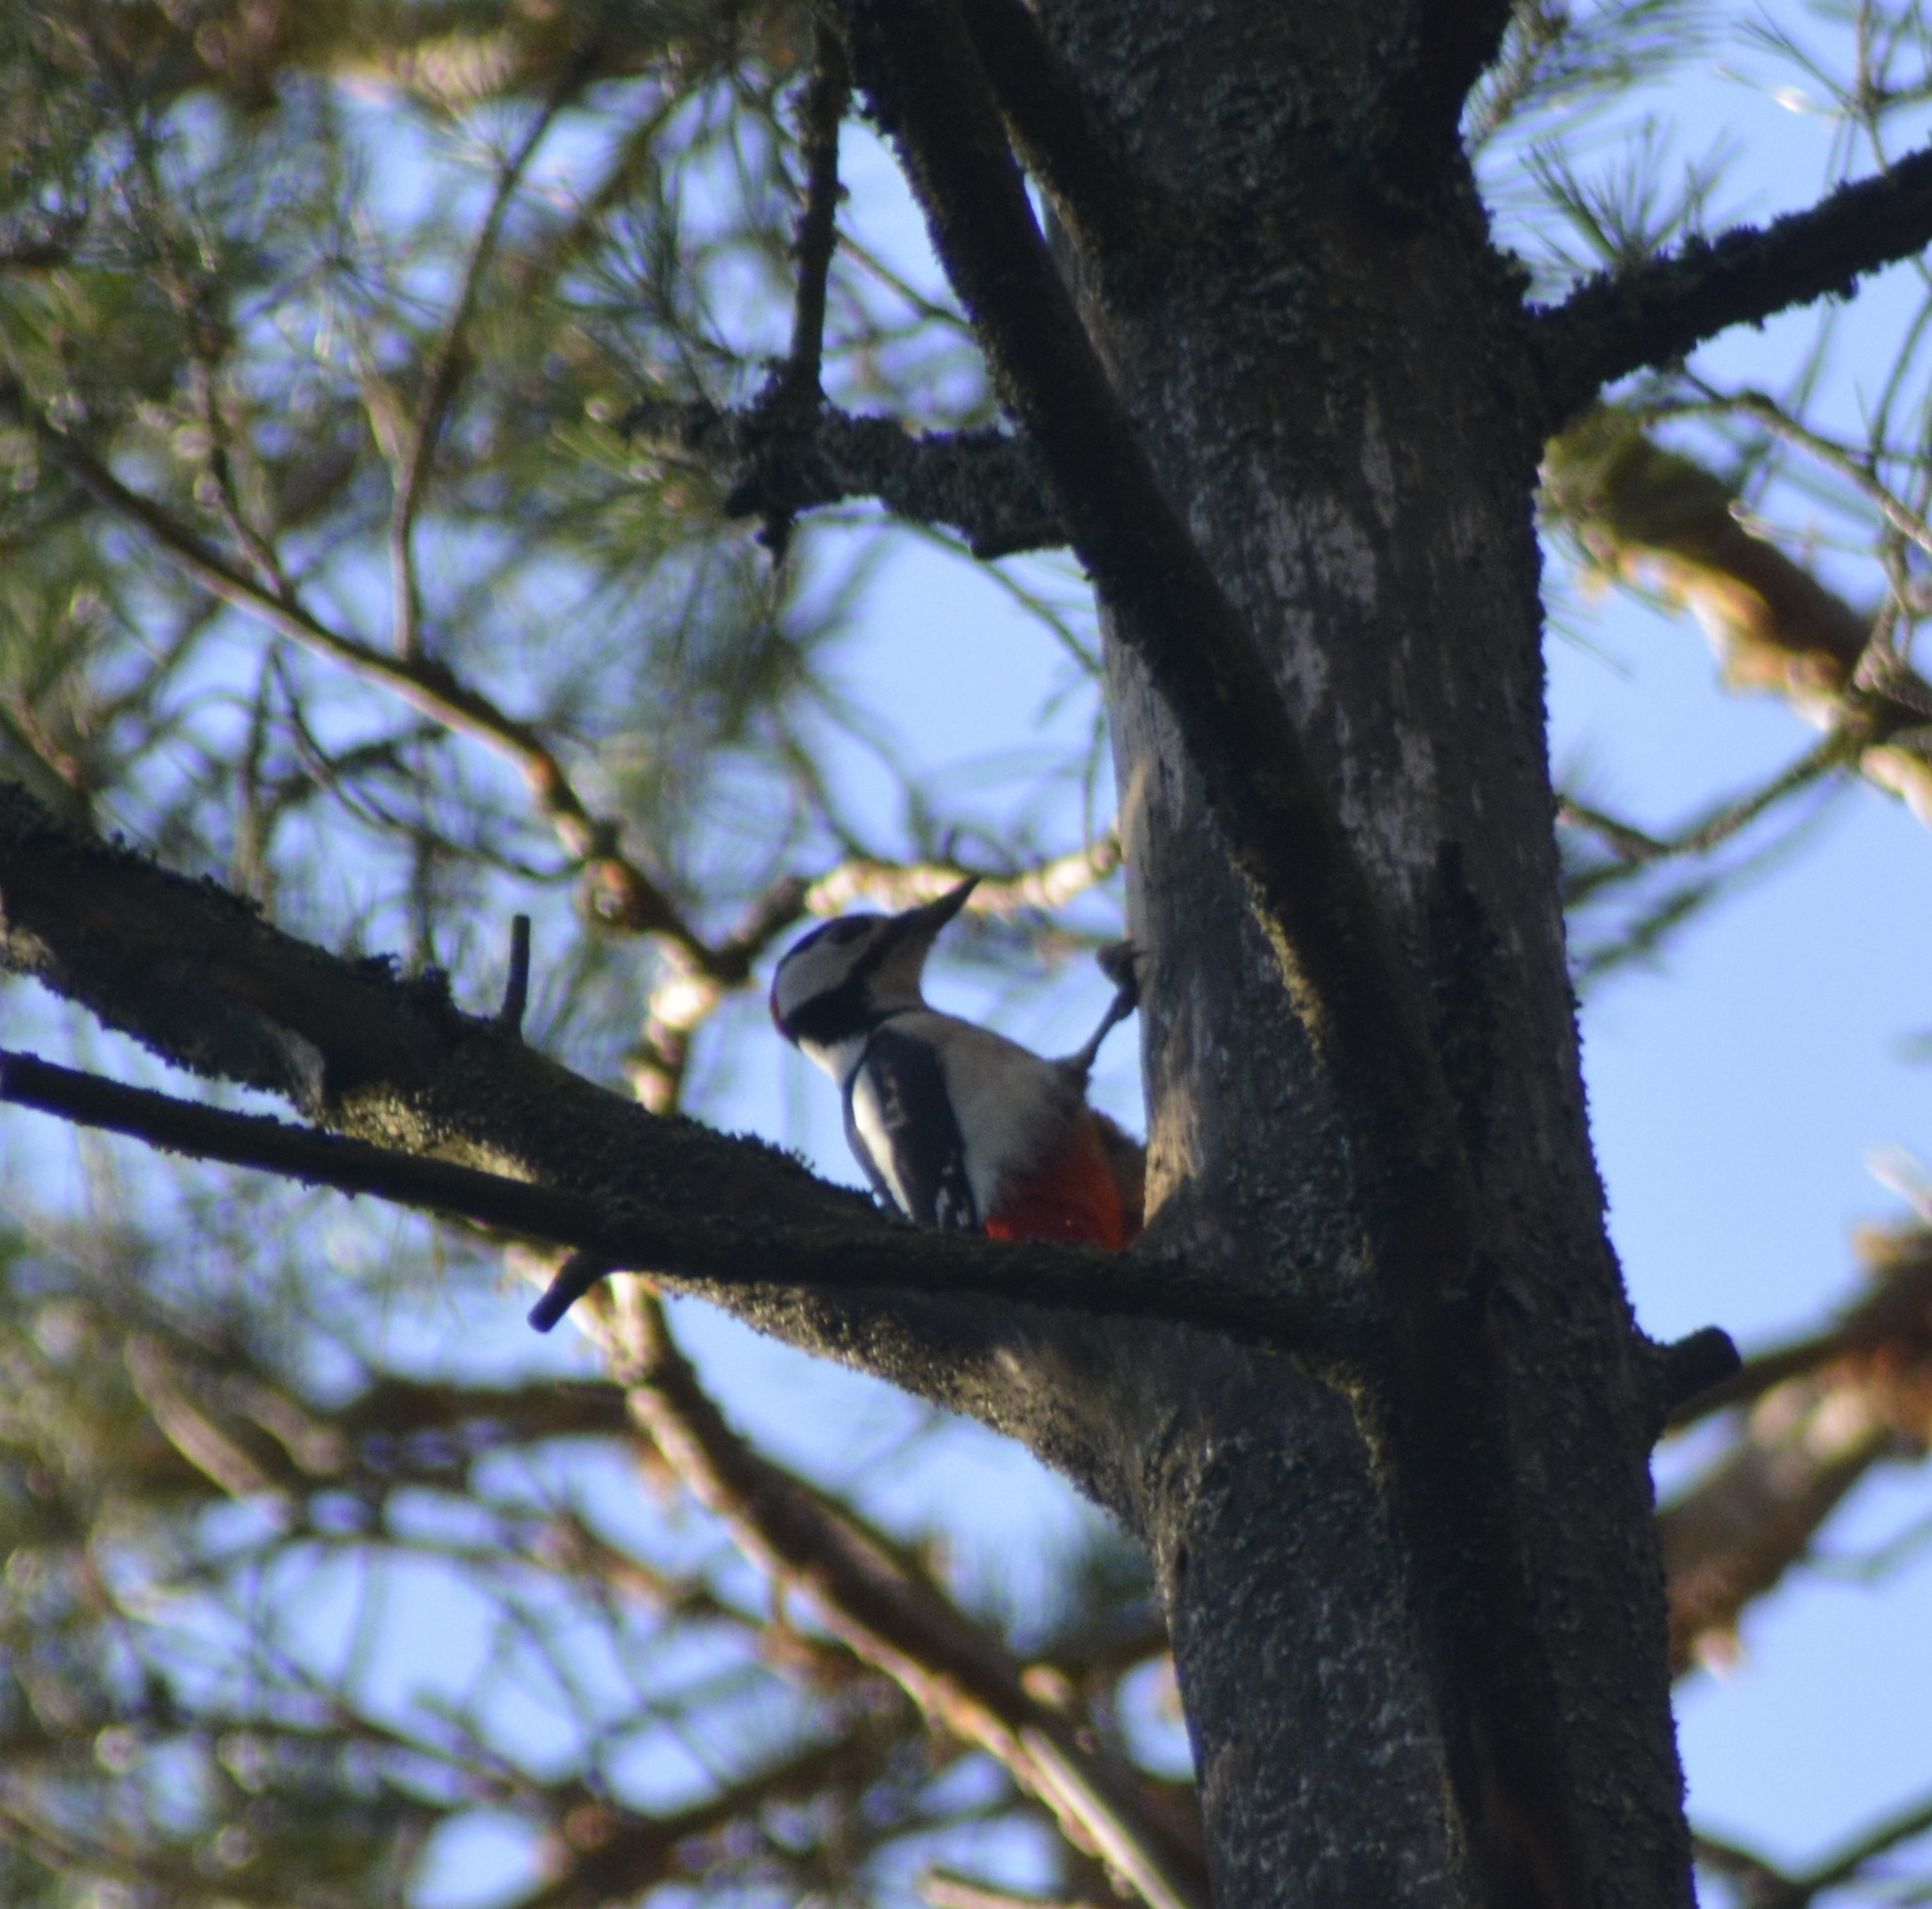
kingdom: Animalia
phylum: Chordata
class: Aves
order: Piciformes
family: Picidae
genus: Dendrocopos
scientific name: Dendrocopos major
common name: Great spotted woodpecker
